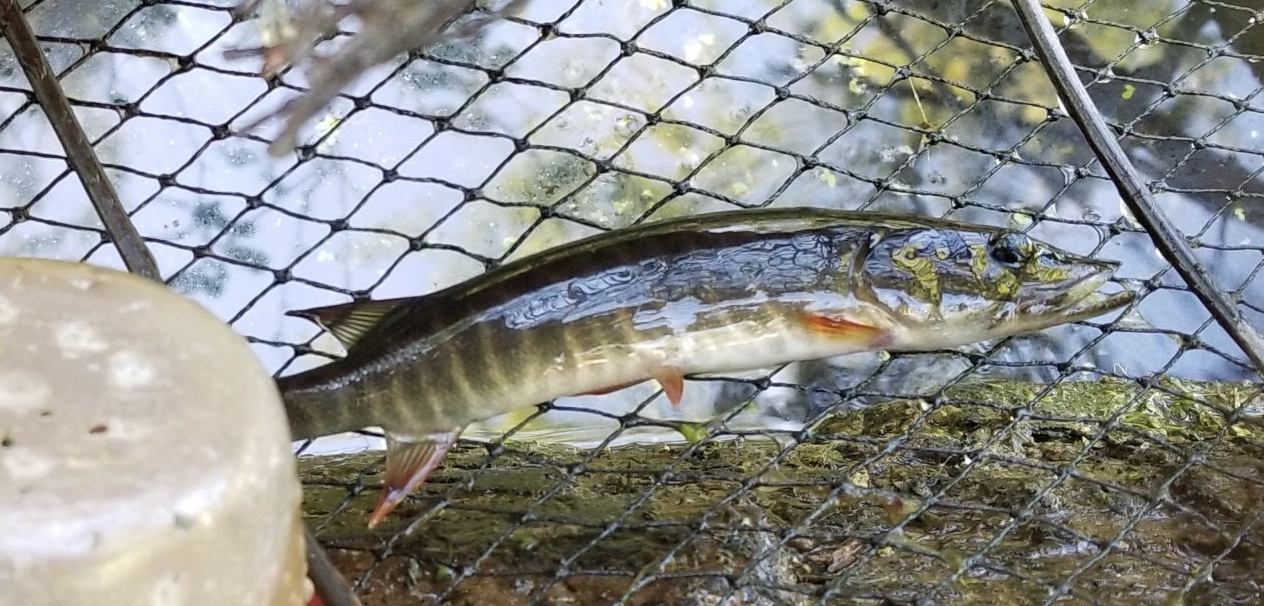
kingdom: Animalia
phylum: Chordata
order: Esociformes
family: Esocidae
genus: Esox
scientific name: Esox americanus
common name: Redfin pickerel
